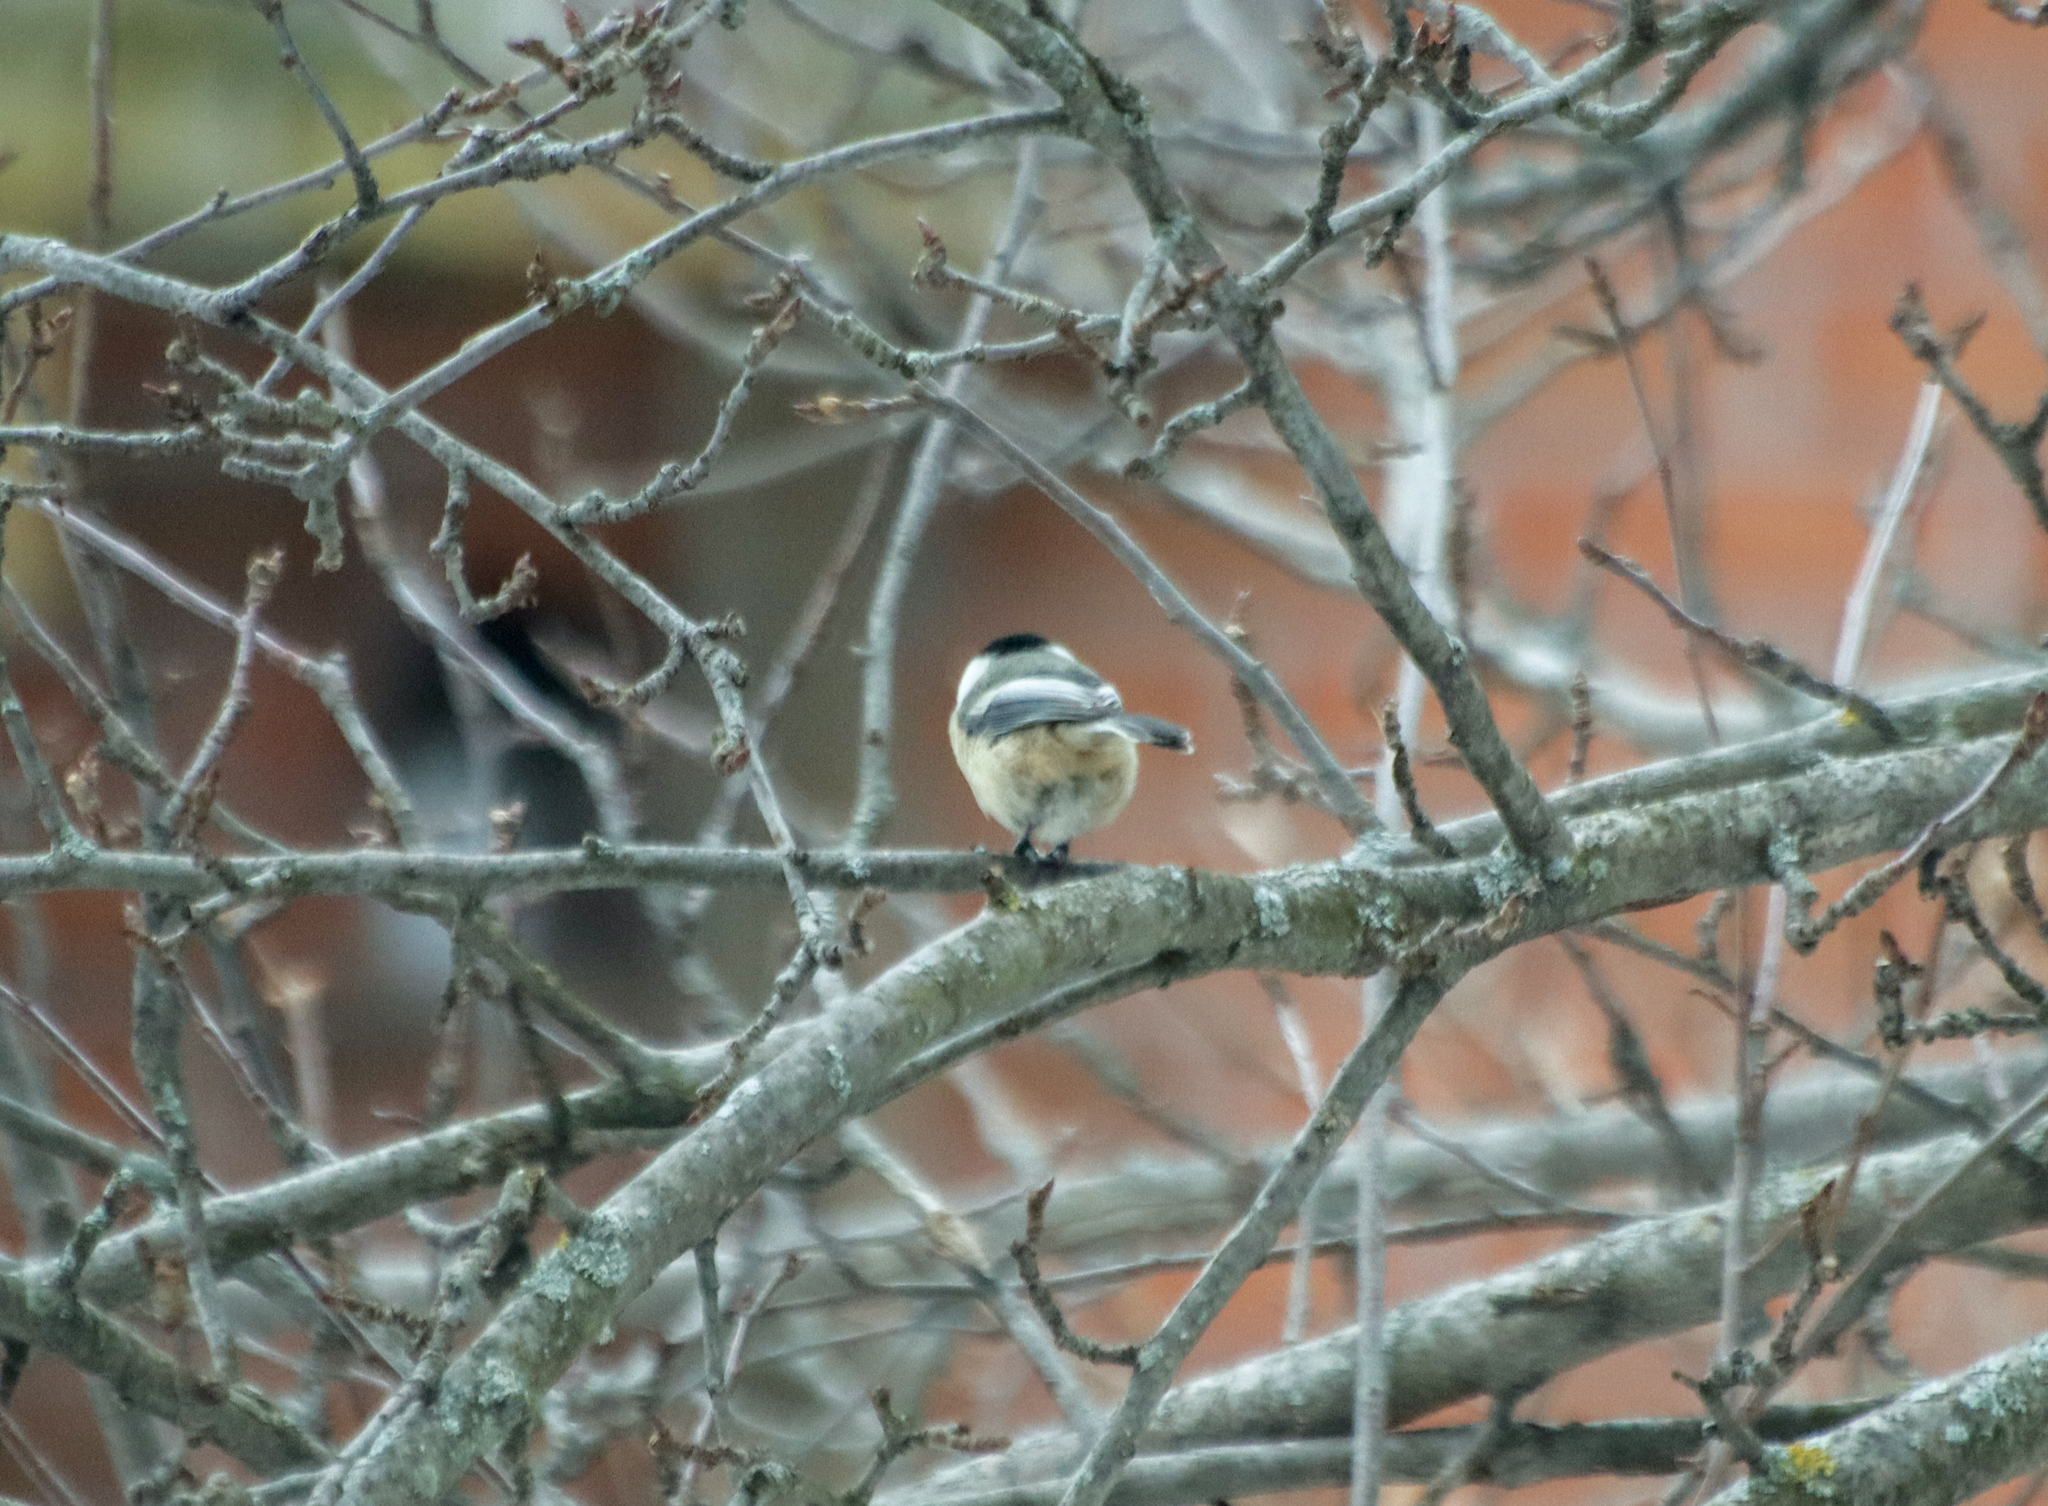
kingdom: Animalia
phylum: Chordata
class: Aves
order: Passeriformes
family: Paridae
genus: Poecile
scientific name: Poecile atricapillus
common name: Black-capped chickadee
